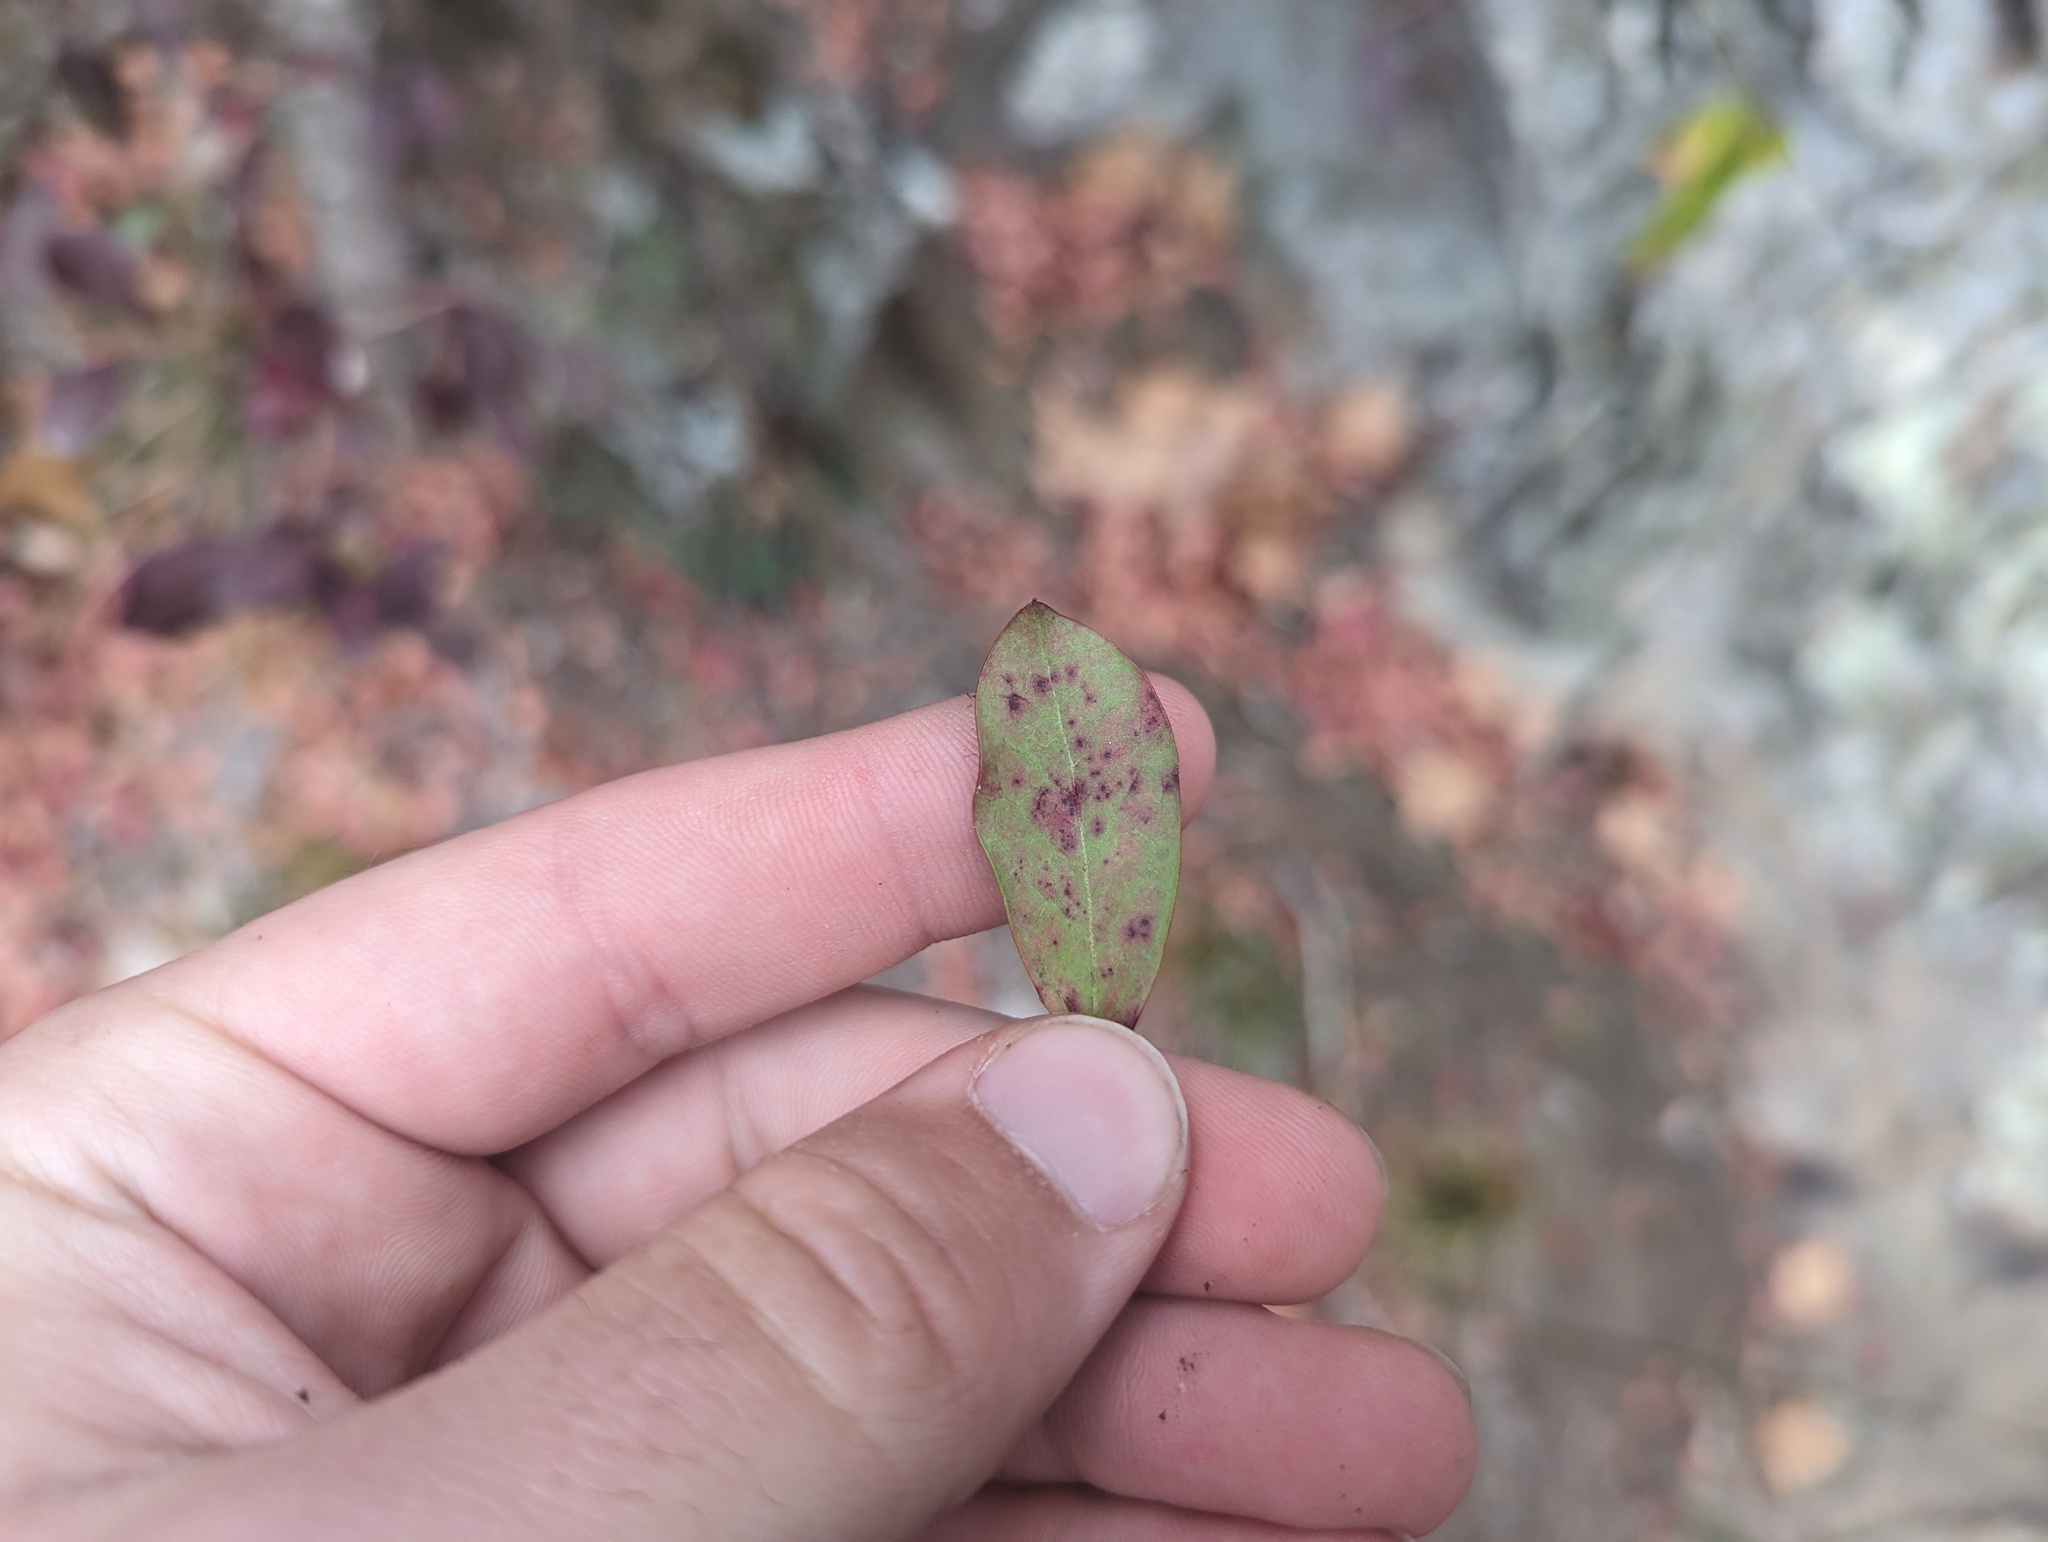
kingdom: Plantae
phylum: Tracheophyta
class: Magnoliopsida
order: Ericales
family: Ericaceae
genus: Vaccinium
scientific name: Vaccinium arboreum
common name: Farkleberry
